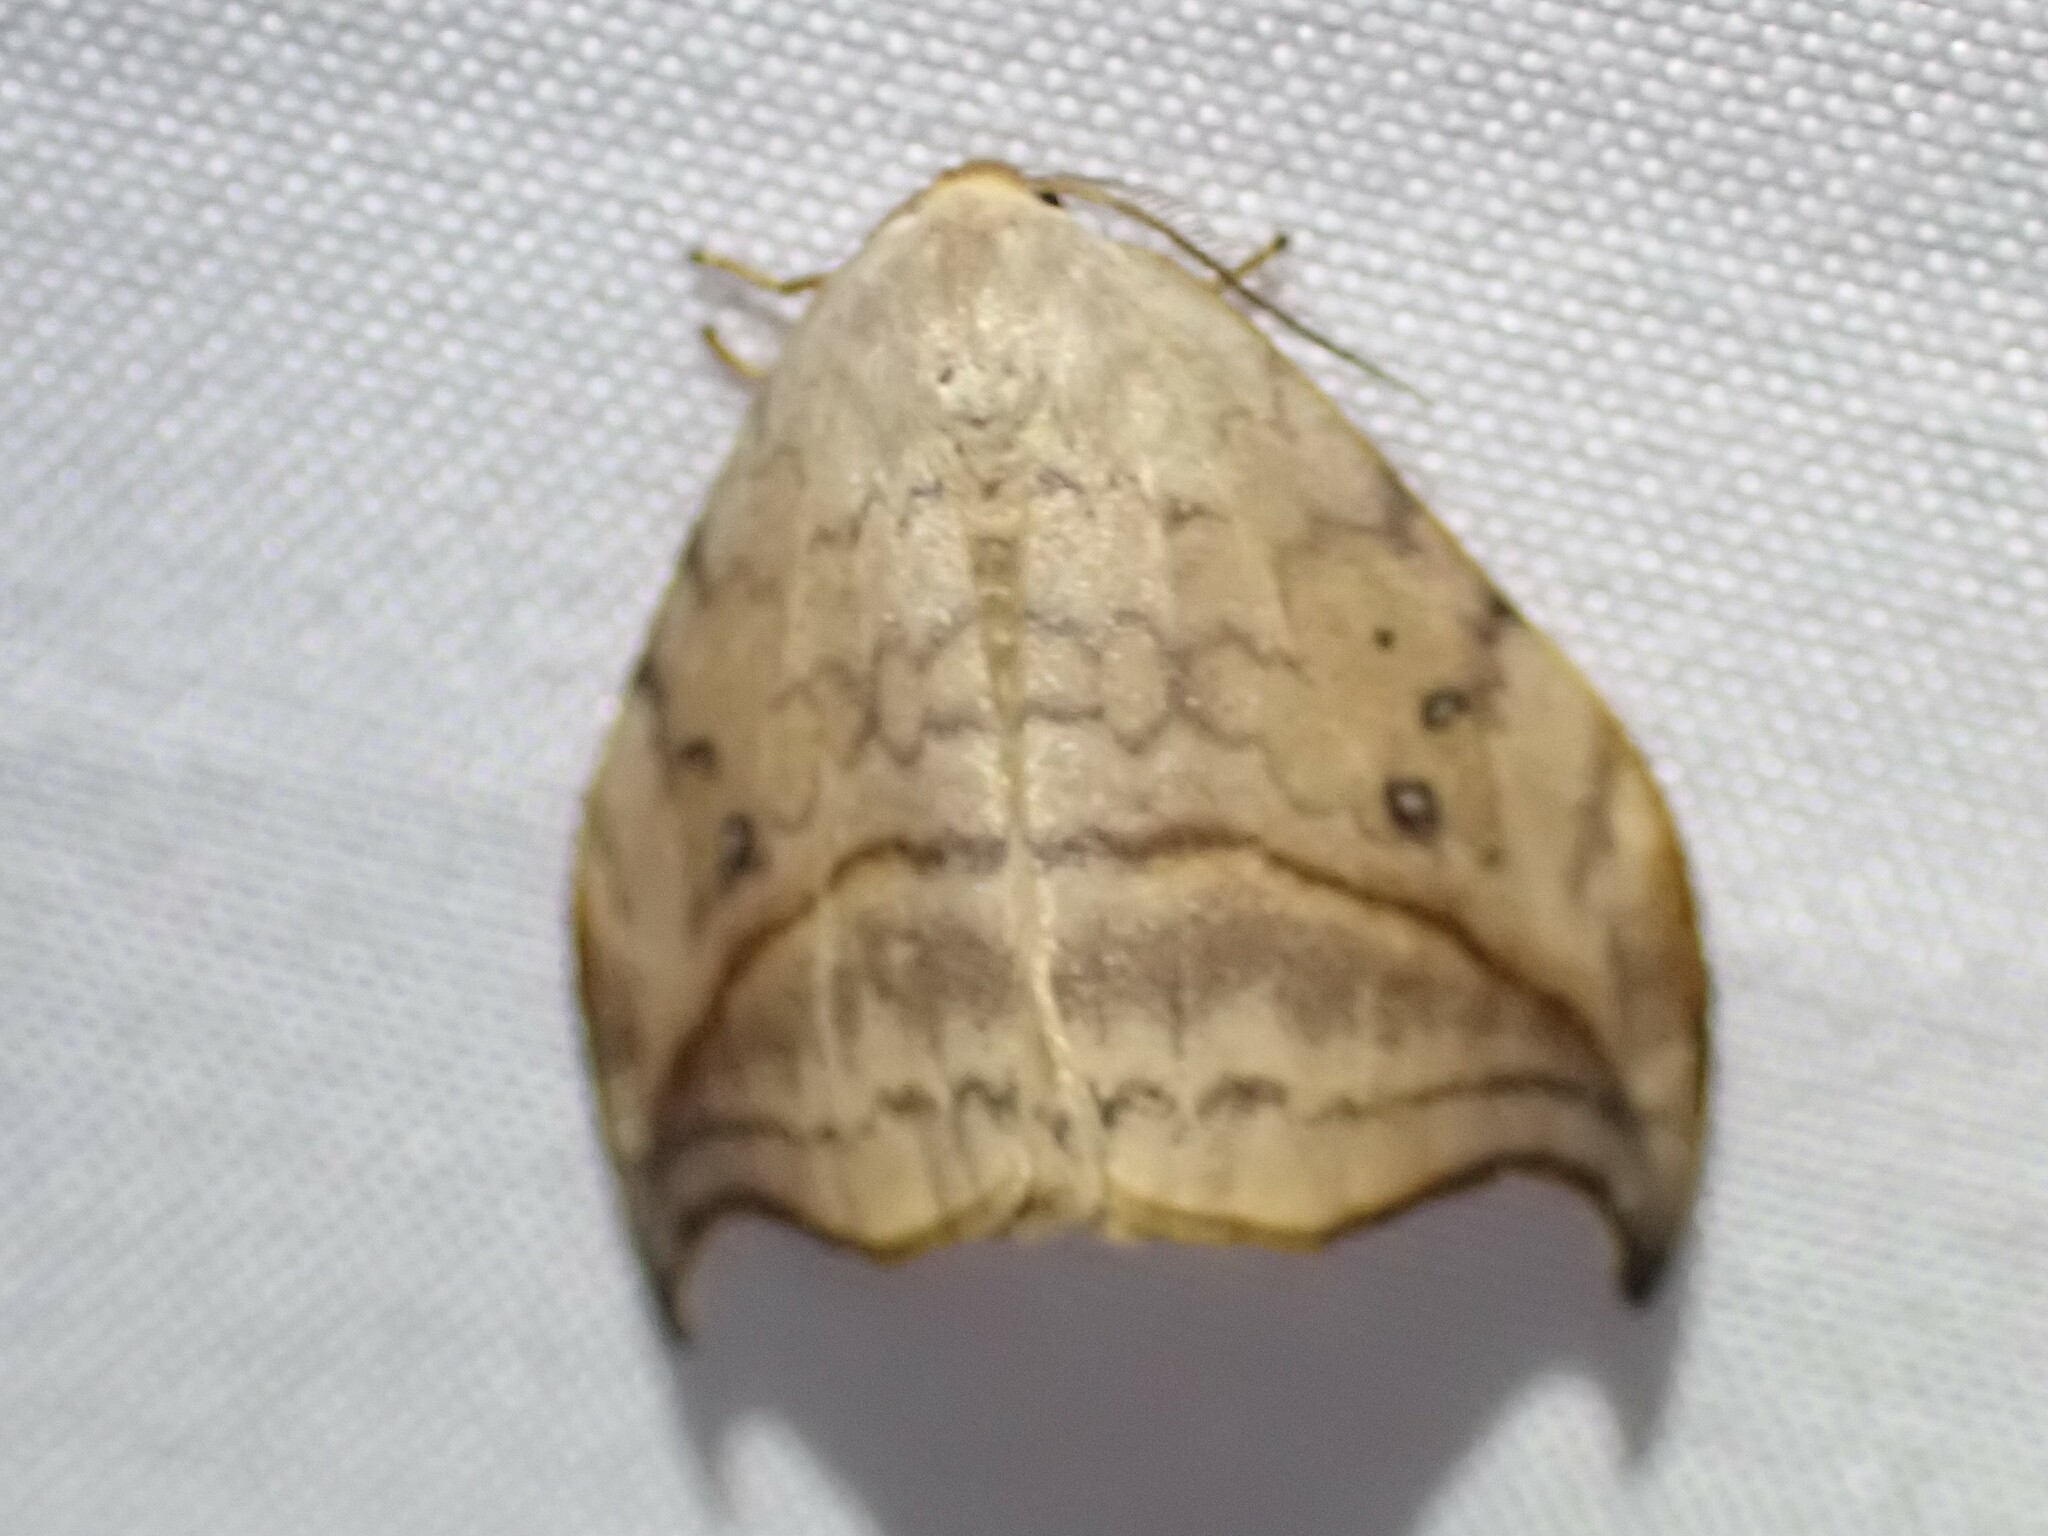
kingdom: Animalia
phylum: Arthropoda
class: Insecta
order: Lepidoptera
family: Drepanidae
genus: Drepana
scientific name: Drepana arcuata
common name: Arched hooktip moth
